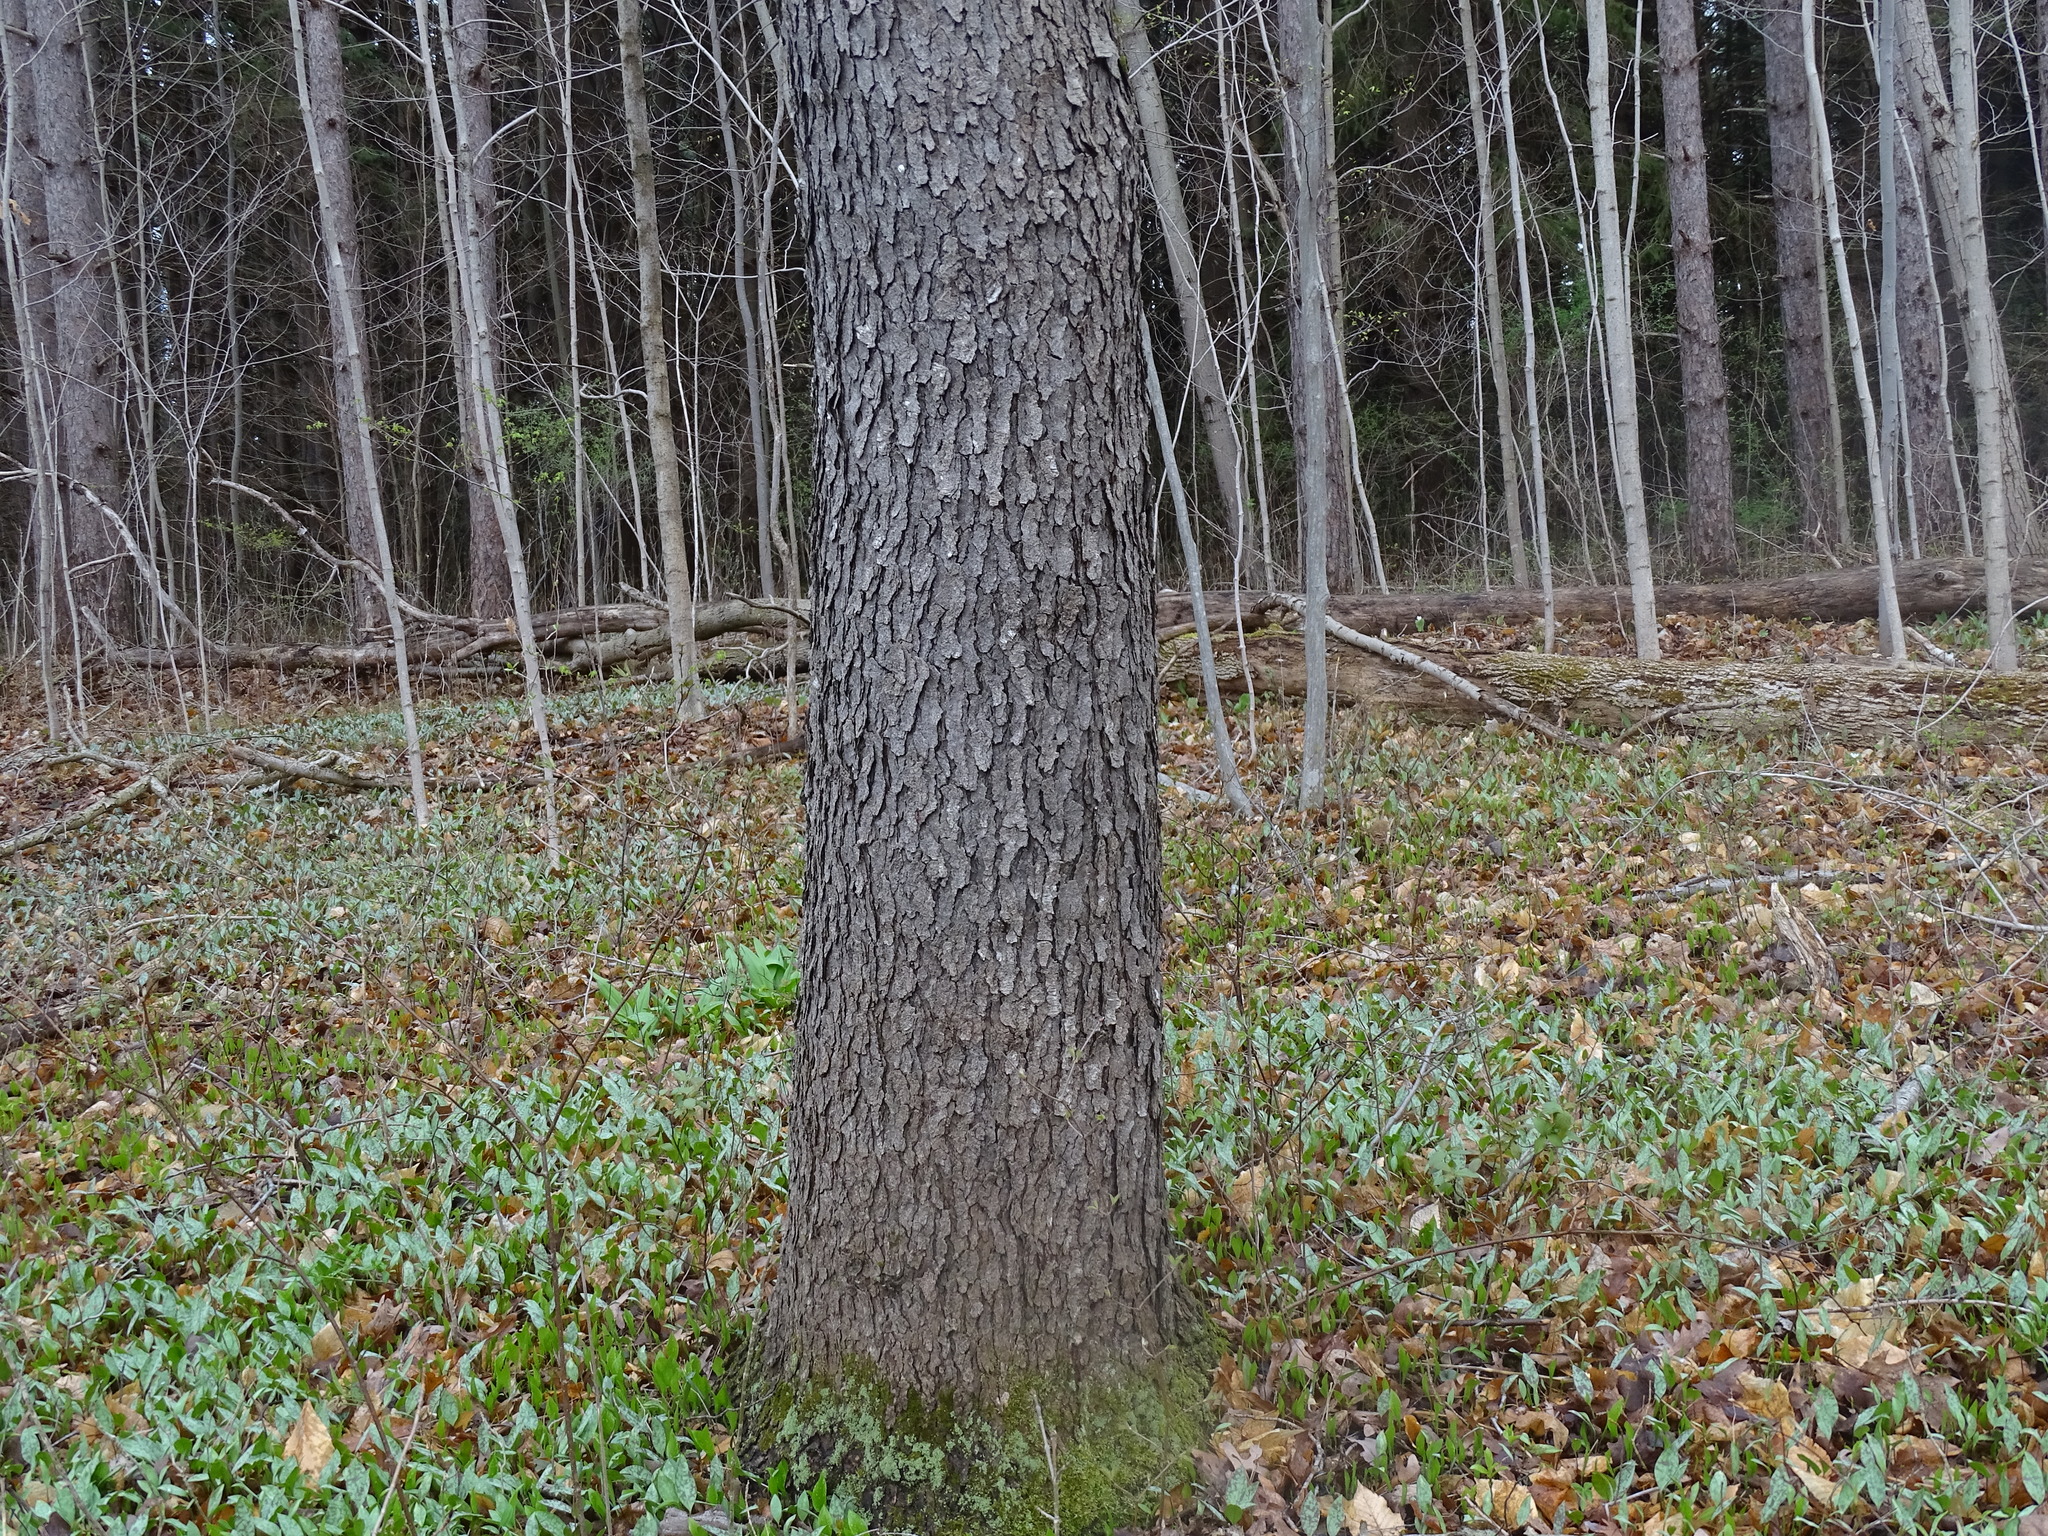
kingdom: Plantae
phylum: Tracheophyta
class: Magnoliopsida
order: Rosales
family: Rosaceae
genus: Prunus
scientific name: Prunus serotina
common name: Black cherry
